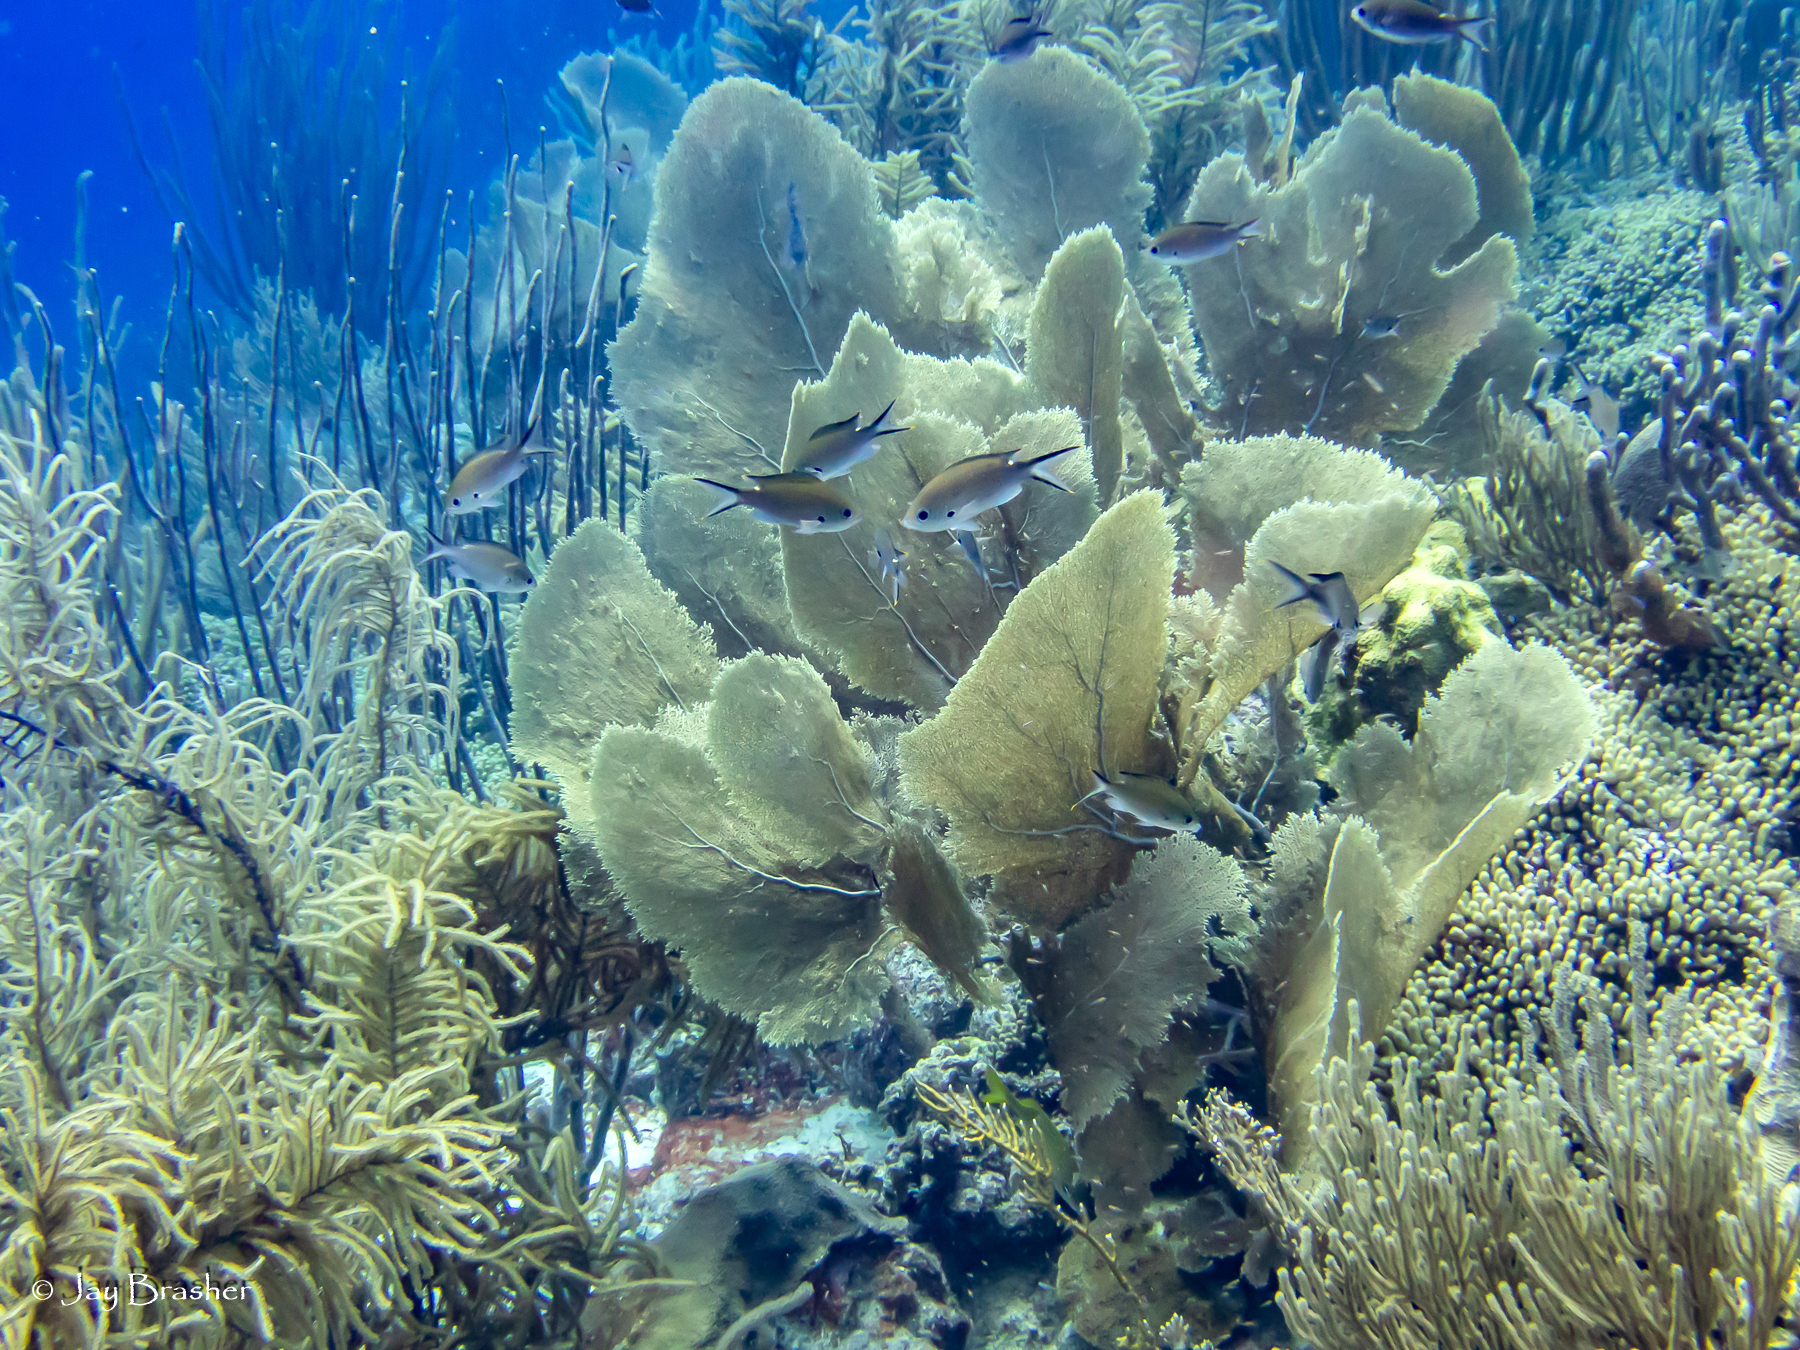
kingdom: Animalia
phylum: Cnidaria
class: Anthozoa
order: Malacalcyonacea
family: Gorgoniidae
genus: Gorgonia
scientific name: Gorgonia ventalina
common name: Common sea fan
